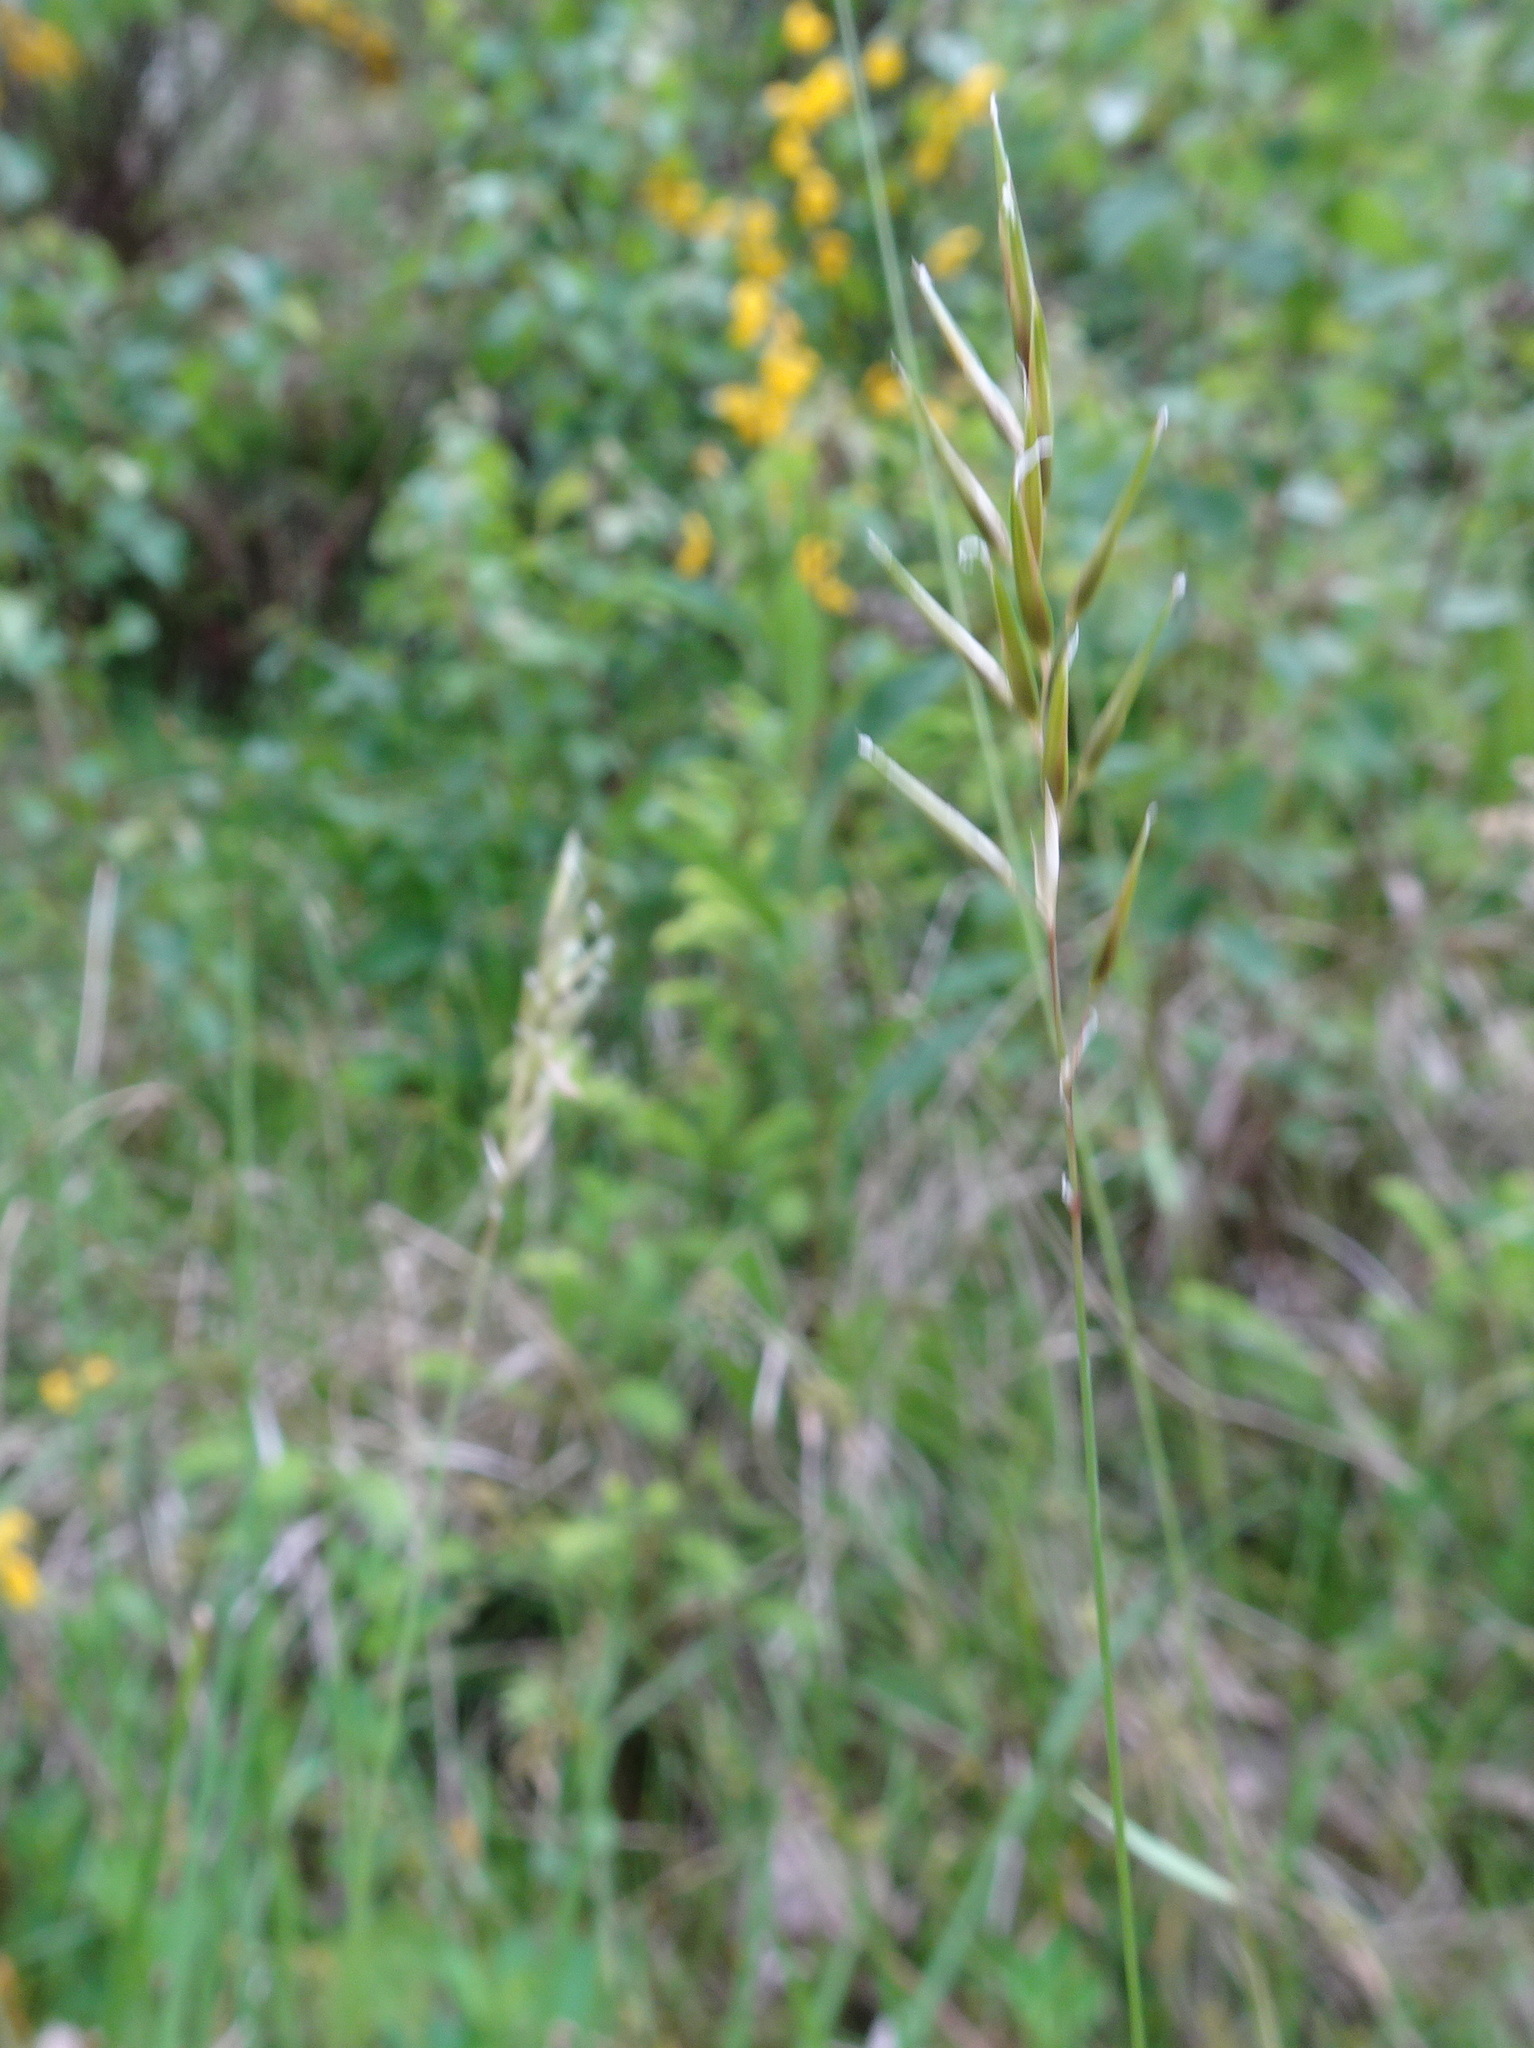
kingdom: Plantae
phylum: Tracheophyta
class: Liliopsida
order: Poales
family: Poaceae
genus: Anthoxanthum
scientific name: Anthoxanthum odoratum
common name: Sweet vernalgrass
